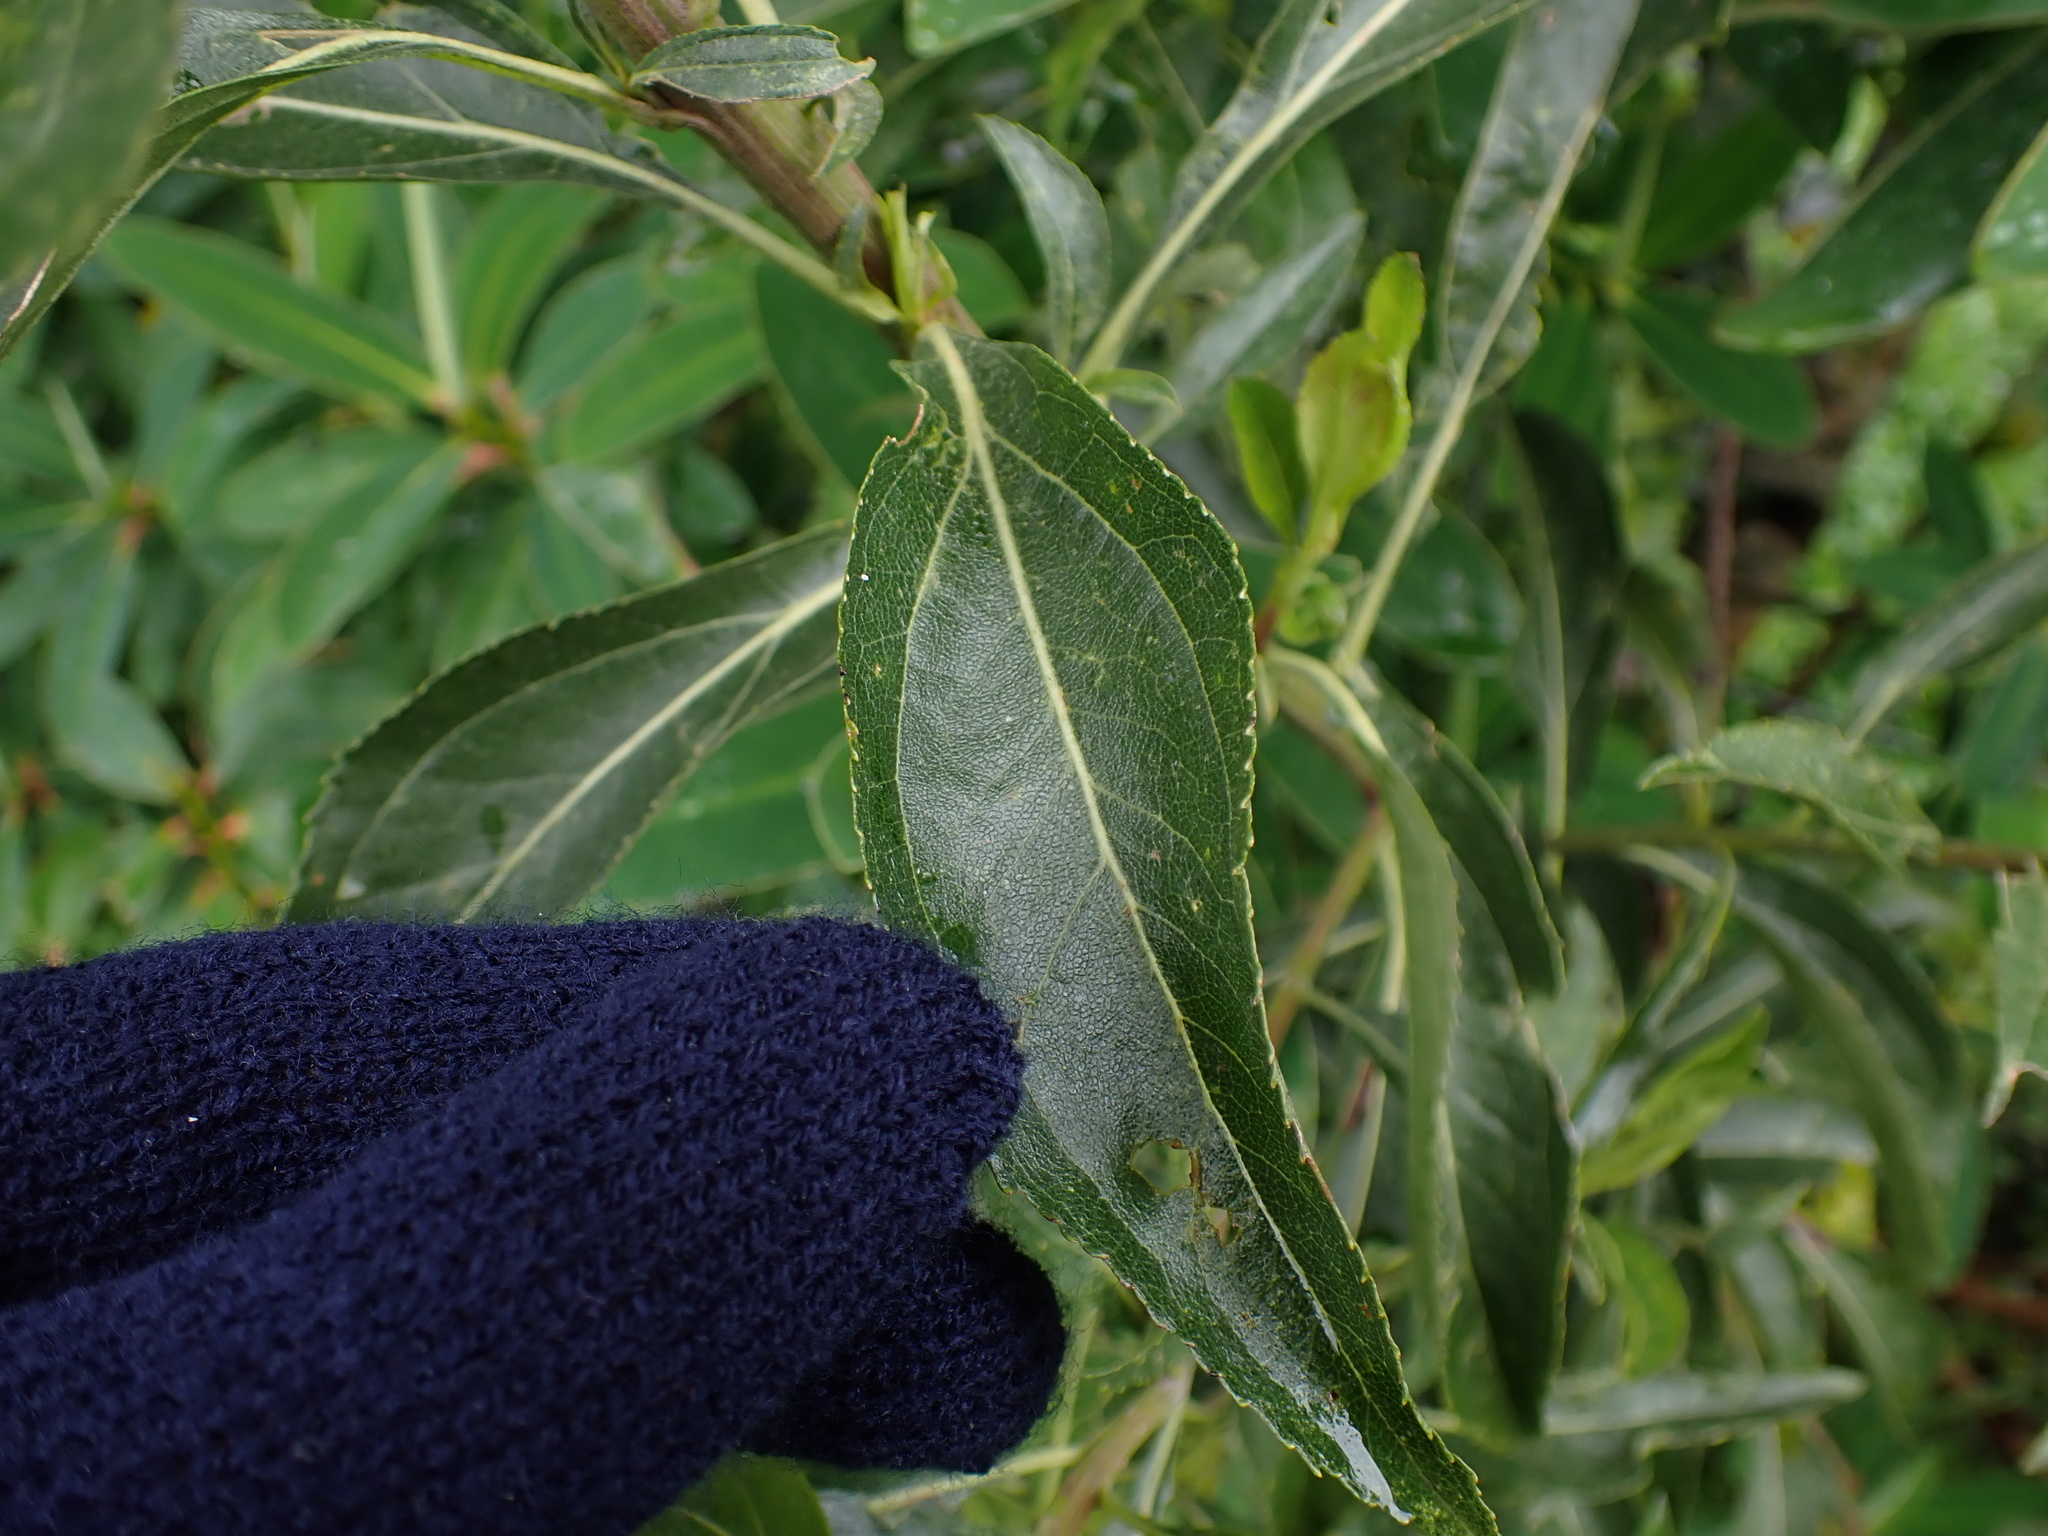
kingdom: Plantae
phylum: Tracheophyta
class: Magnoliopsida
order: Asterales
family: Asteraceae
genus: Baccharis
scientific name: Baccharis latifolia
